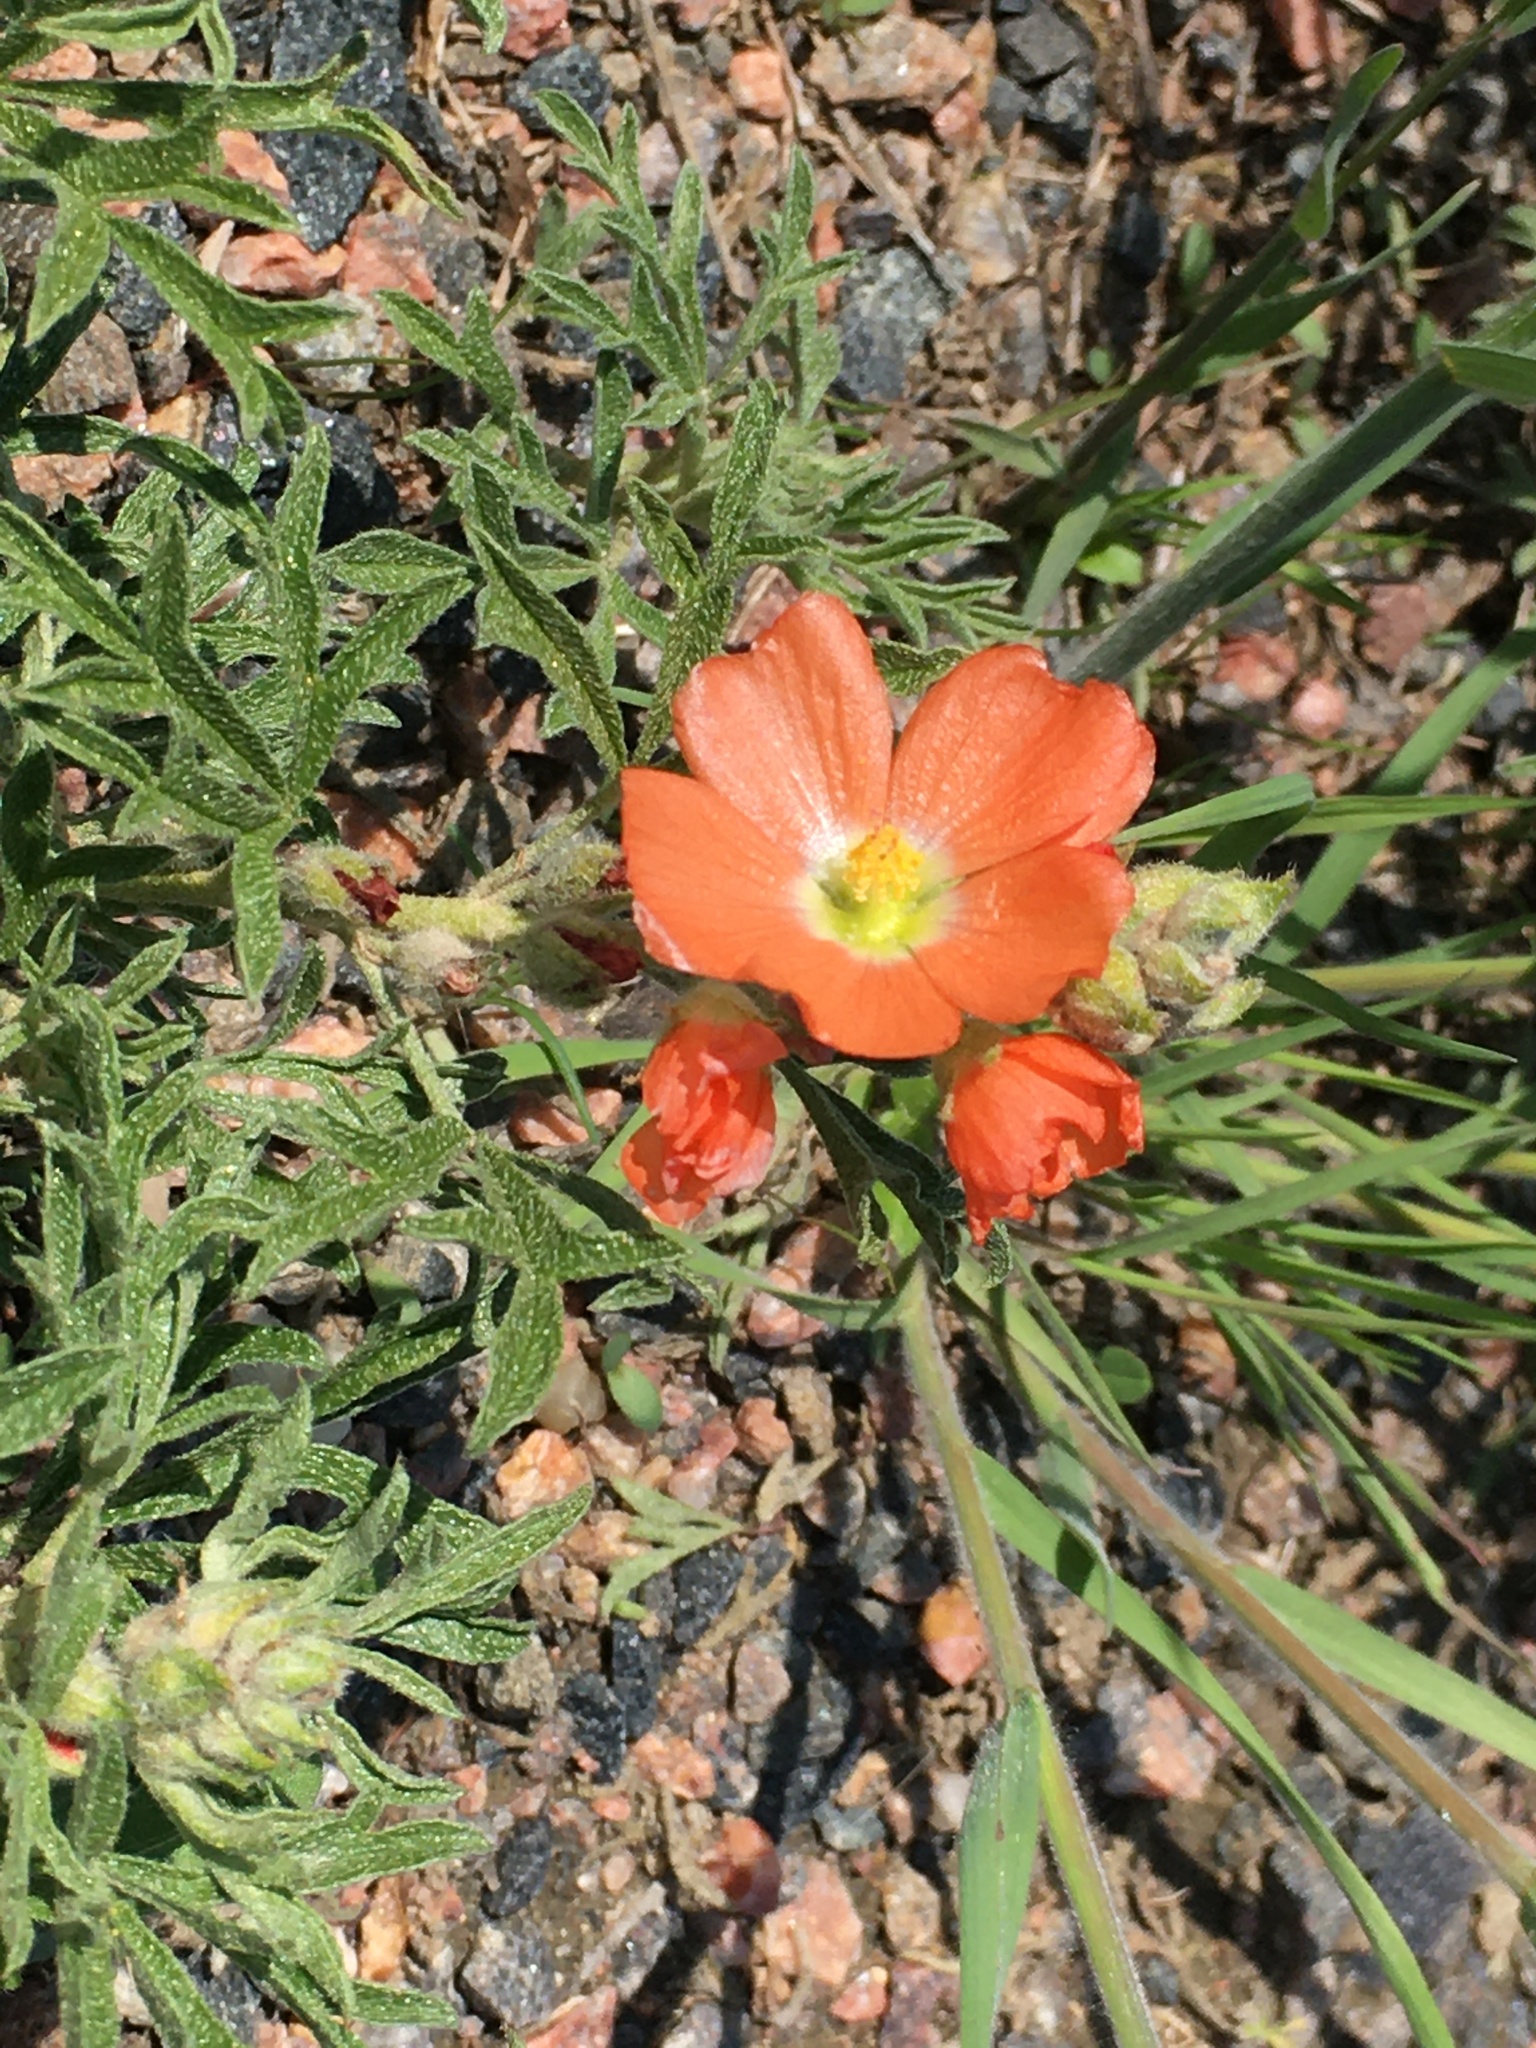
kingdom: Plantae
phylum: Tracheophyta
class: Magnoliopsida
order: Malvales
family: Malvaceae
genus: Sphaeralcea
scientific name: Sphaeralcea coccinea
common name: Moss-rose
